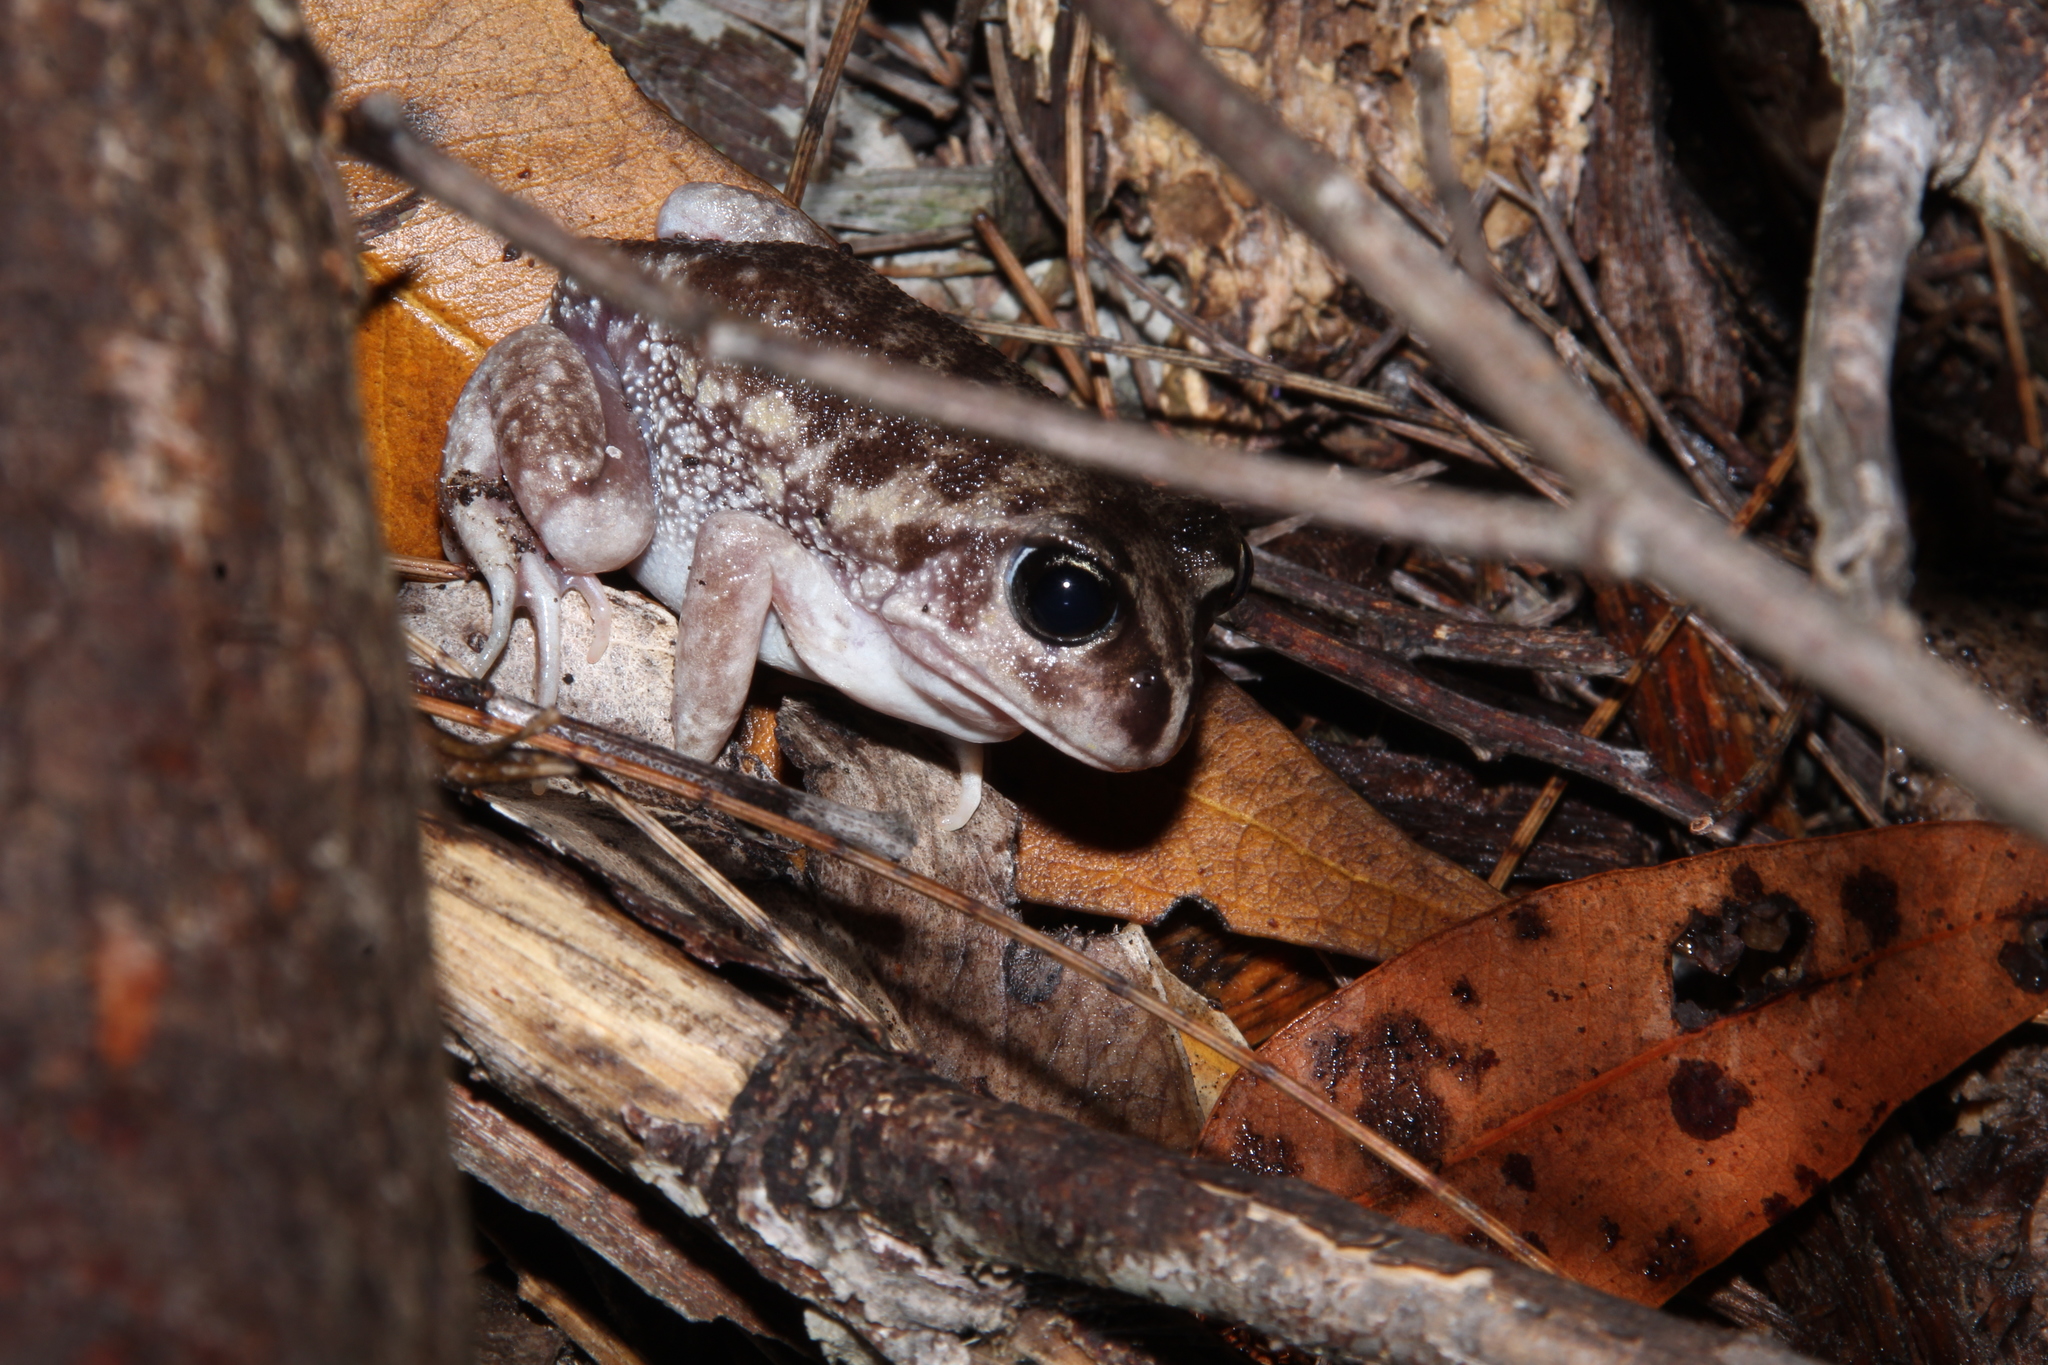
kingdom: Animalia
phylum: Chordata
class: Amphibia
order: Anura
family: Limnodynastidae
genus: Heleioporus
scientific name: Heleioporus eyrei
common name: Moaning frog
